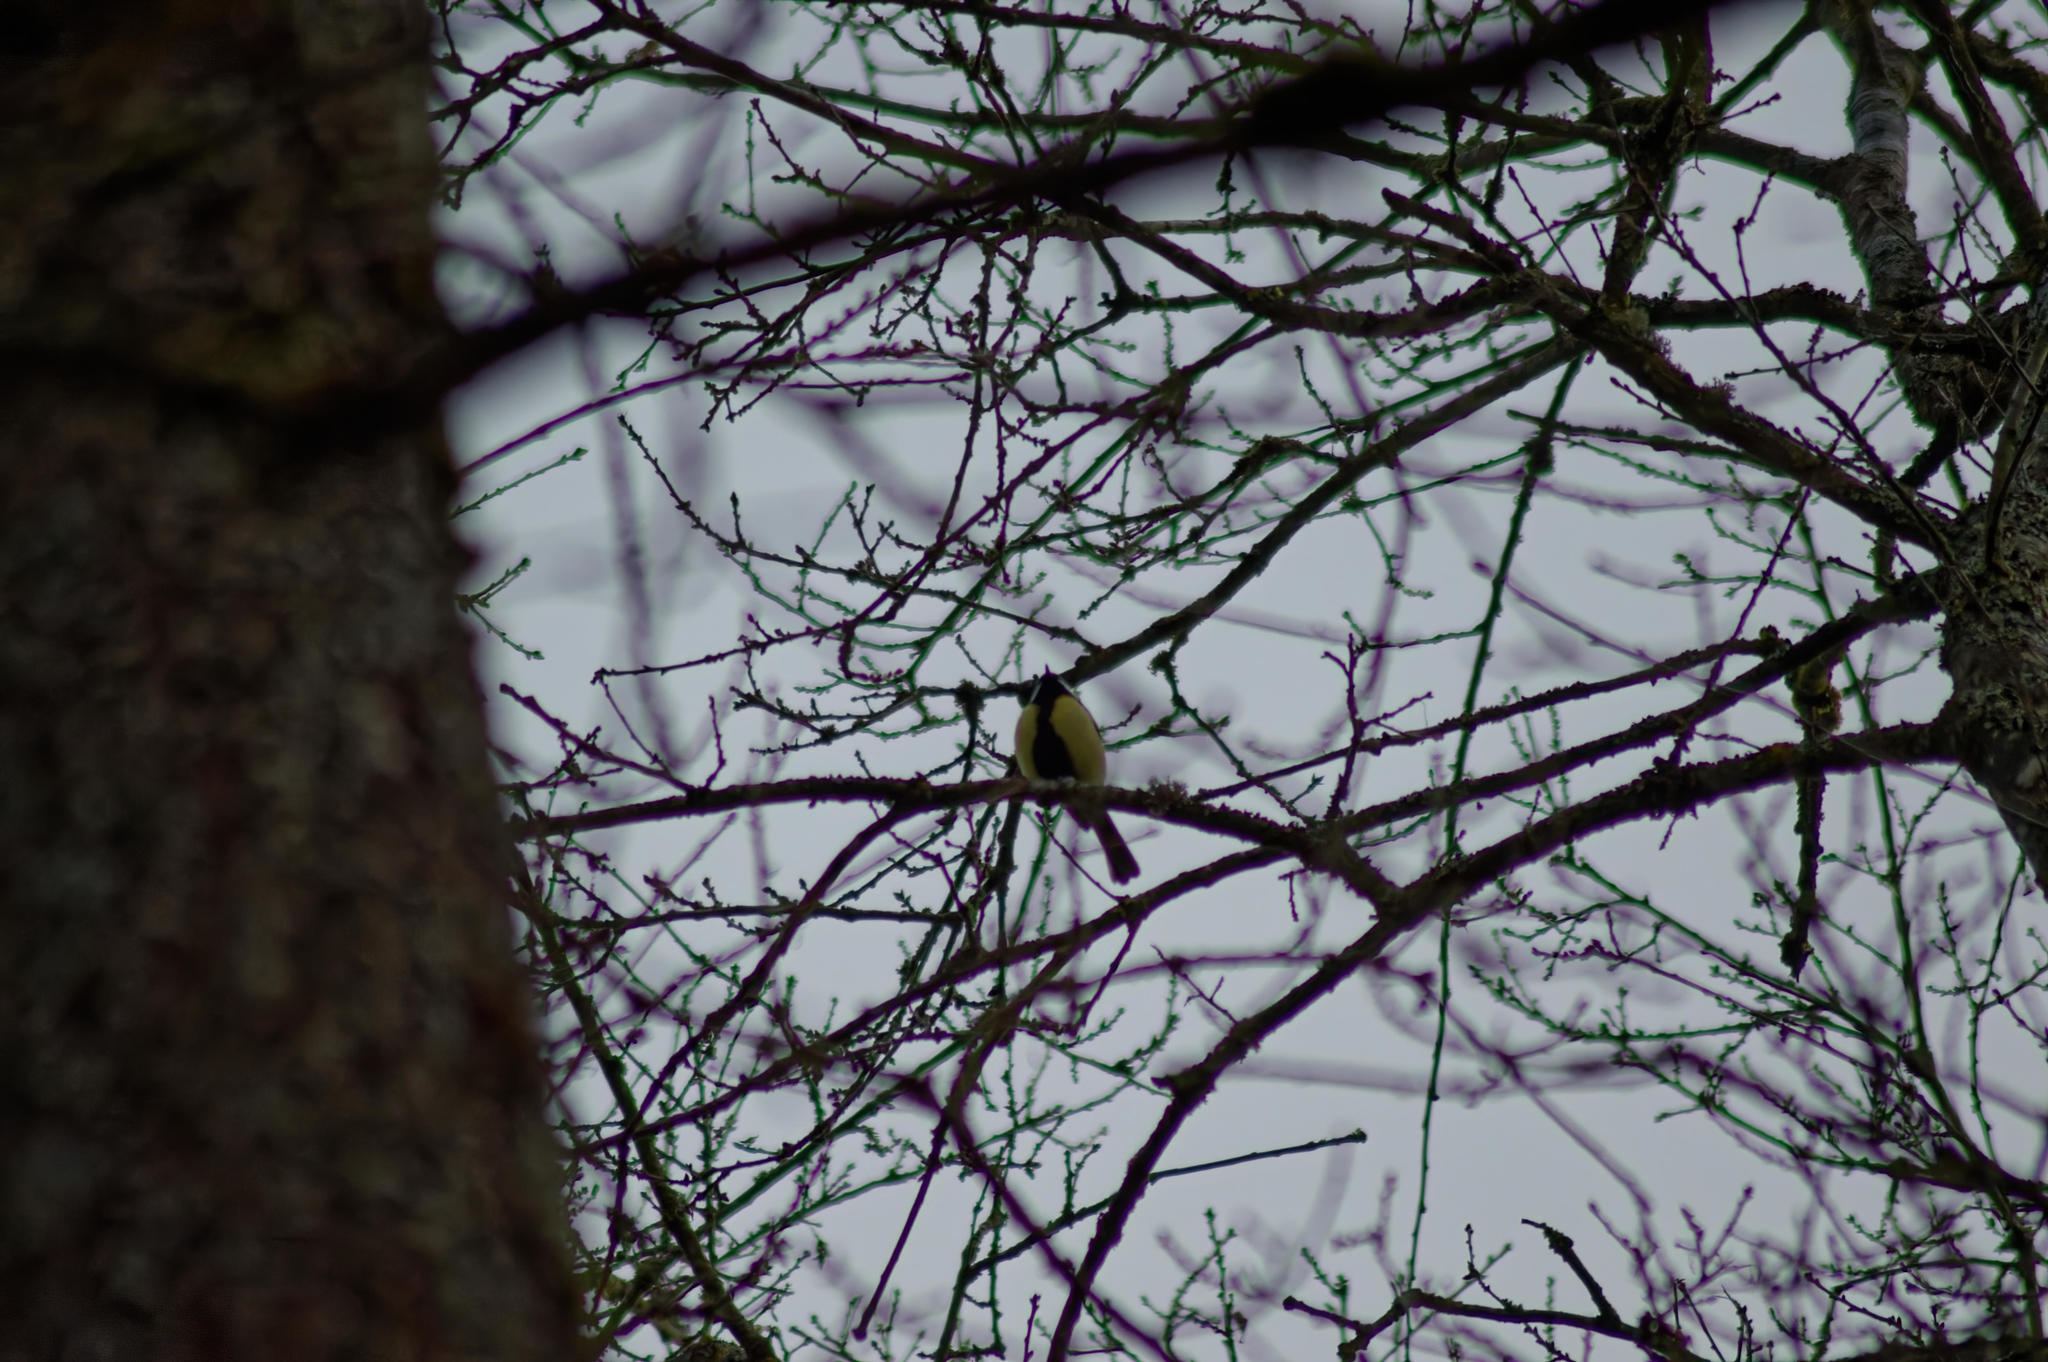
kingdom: Animalia
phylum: Chordata
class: Aves
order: Passeriformes
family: Paridae
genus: Parus
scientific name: Parus major
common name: Great tit
